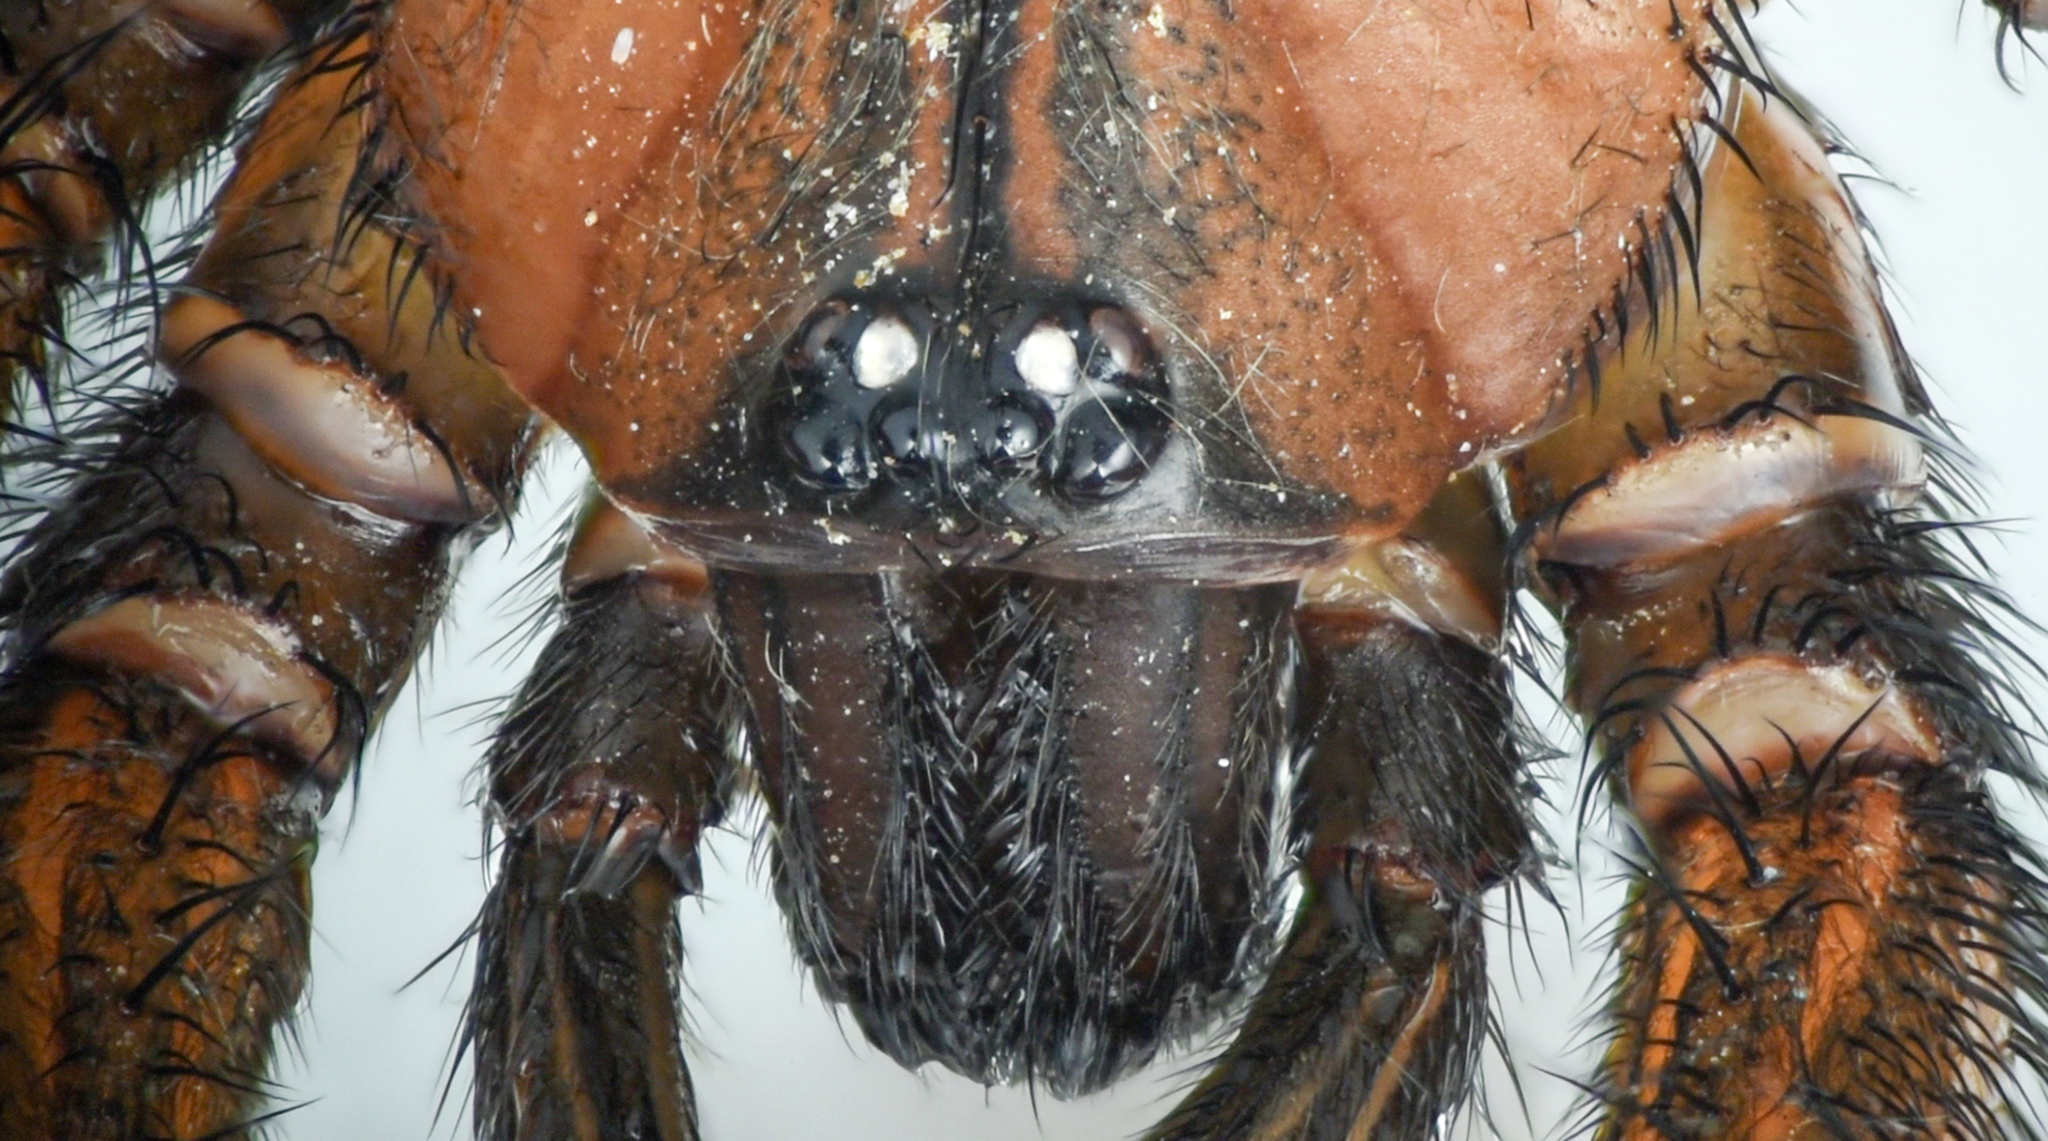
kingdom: Animalia
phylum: Arthropoda
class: Arachnida
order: Araneae
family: Euctenizidae
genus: Promyrmekiaphila
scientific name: Promyrmekiaphila clathrata
